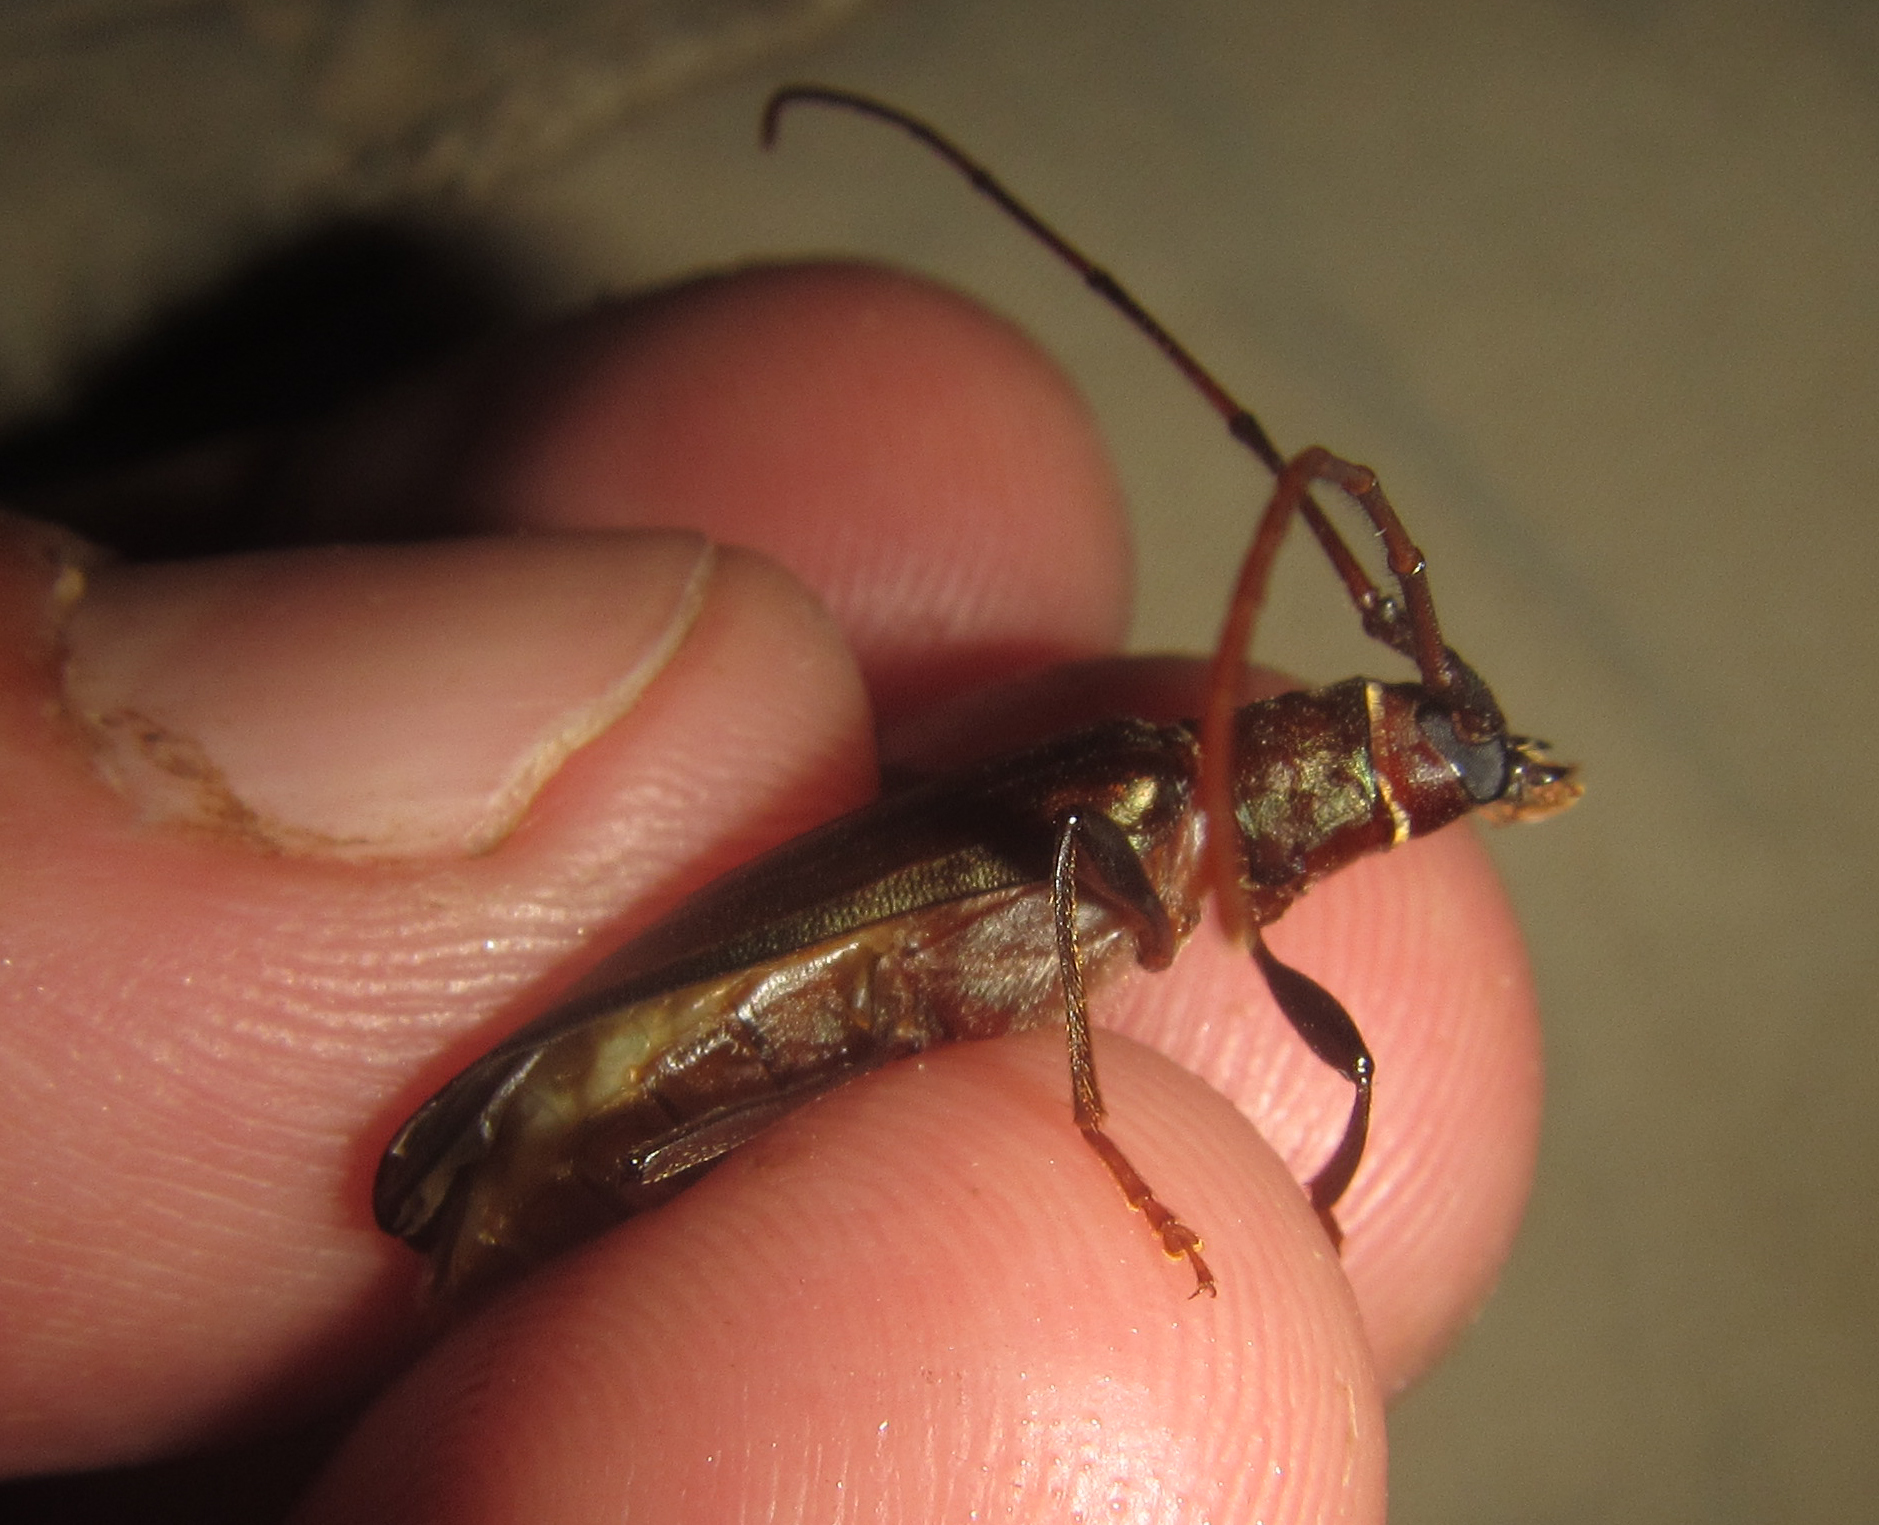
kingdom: Animalia
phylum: Arthropoda
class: Insecta
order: Coleoptera
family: Cerambycidae
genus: Xystrocera
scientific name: Xystrocera erosa
